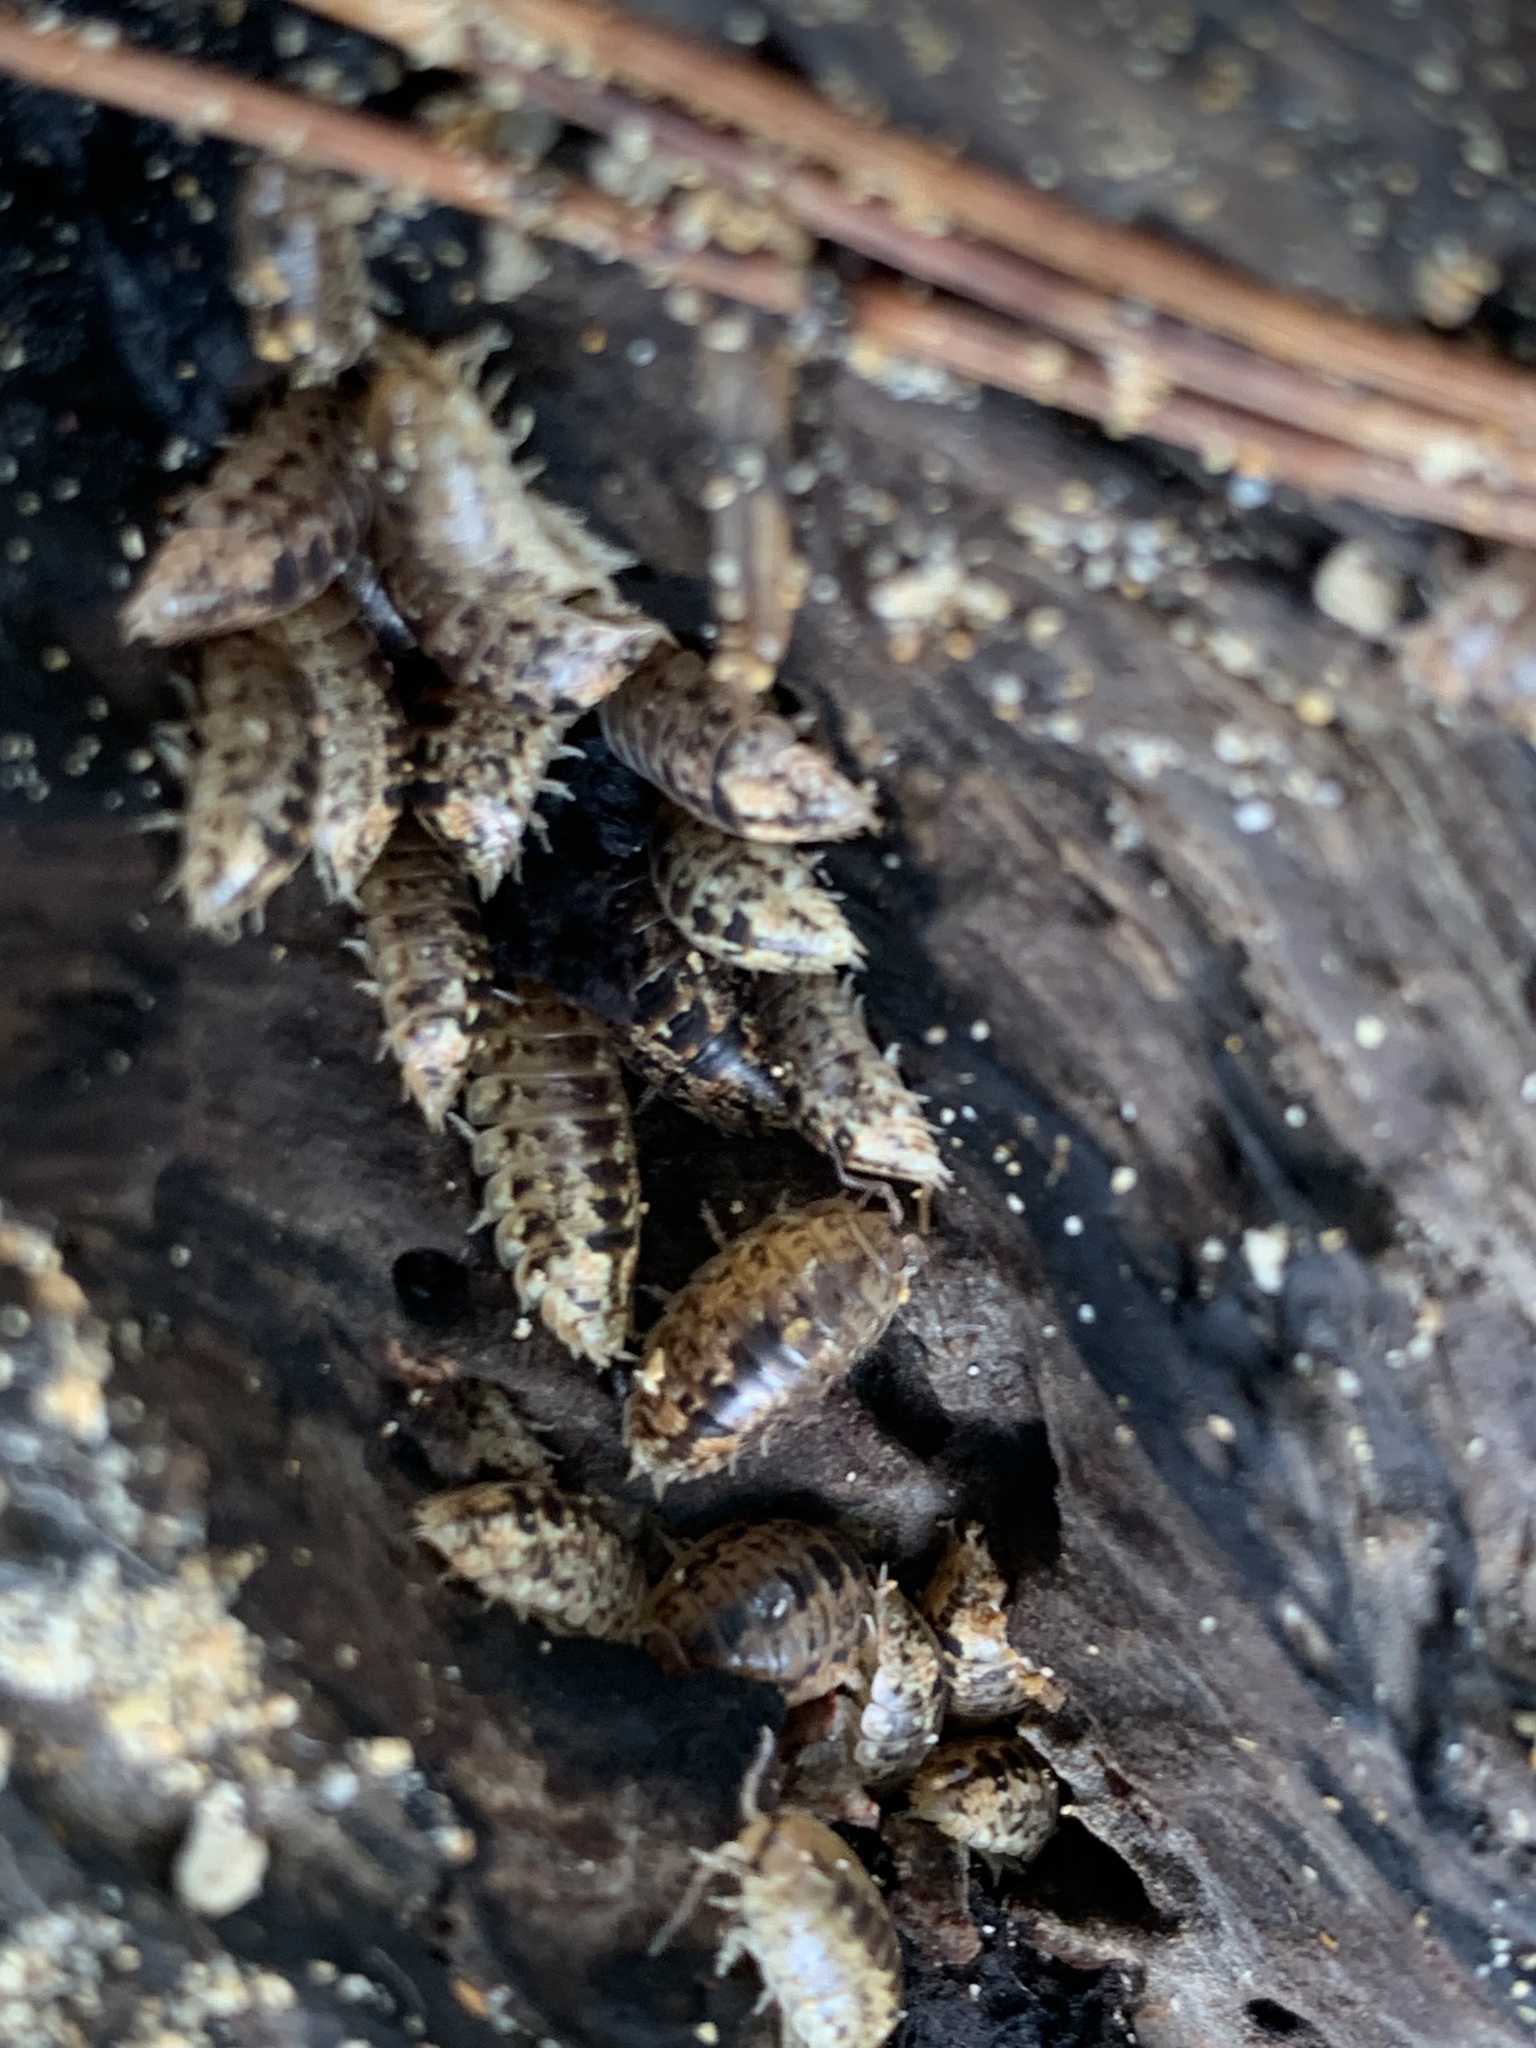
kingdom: Animalia
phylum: Arthropoda
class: Malacostraca
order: Isopoda
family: Alloniscidae
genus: Alloniscus
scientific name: Alloniscus oahuensis
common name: Pillbug
